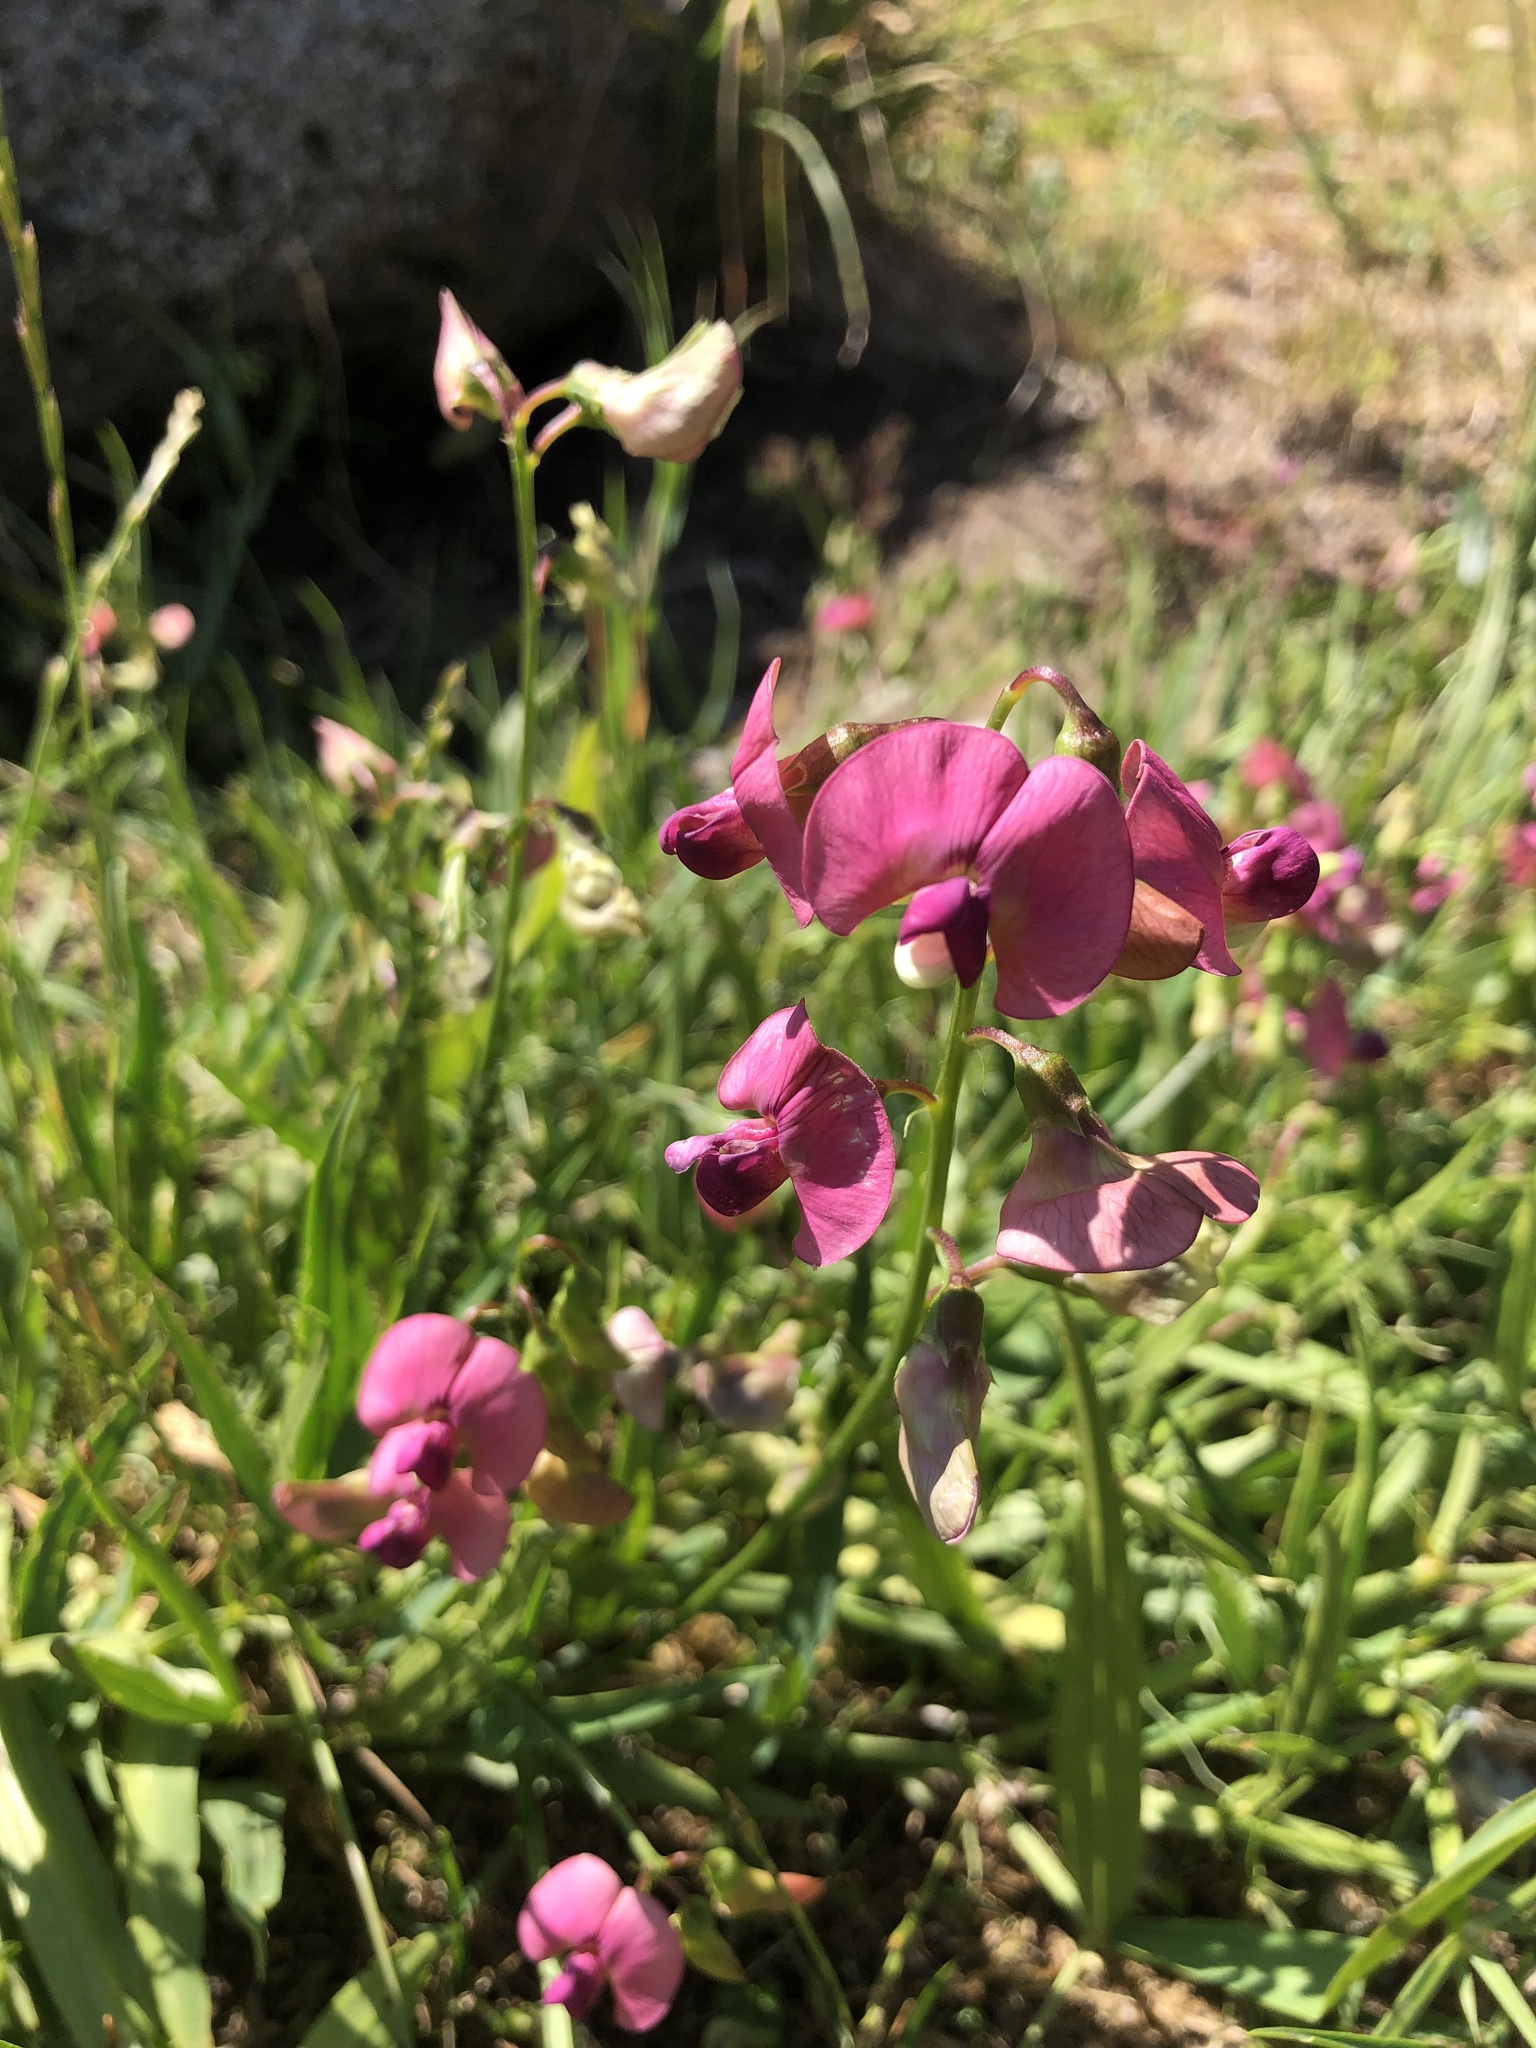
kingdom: Plantae
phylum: Tracheophyta
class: Magnoliopsida
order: Fabales
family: Fabaceae
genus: Lathyrus
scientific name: Lathyrus sylvestris
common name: Flat pea
